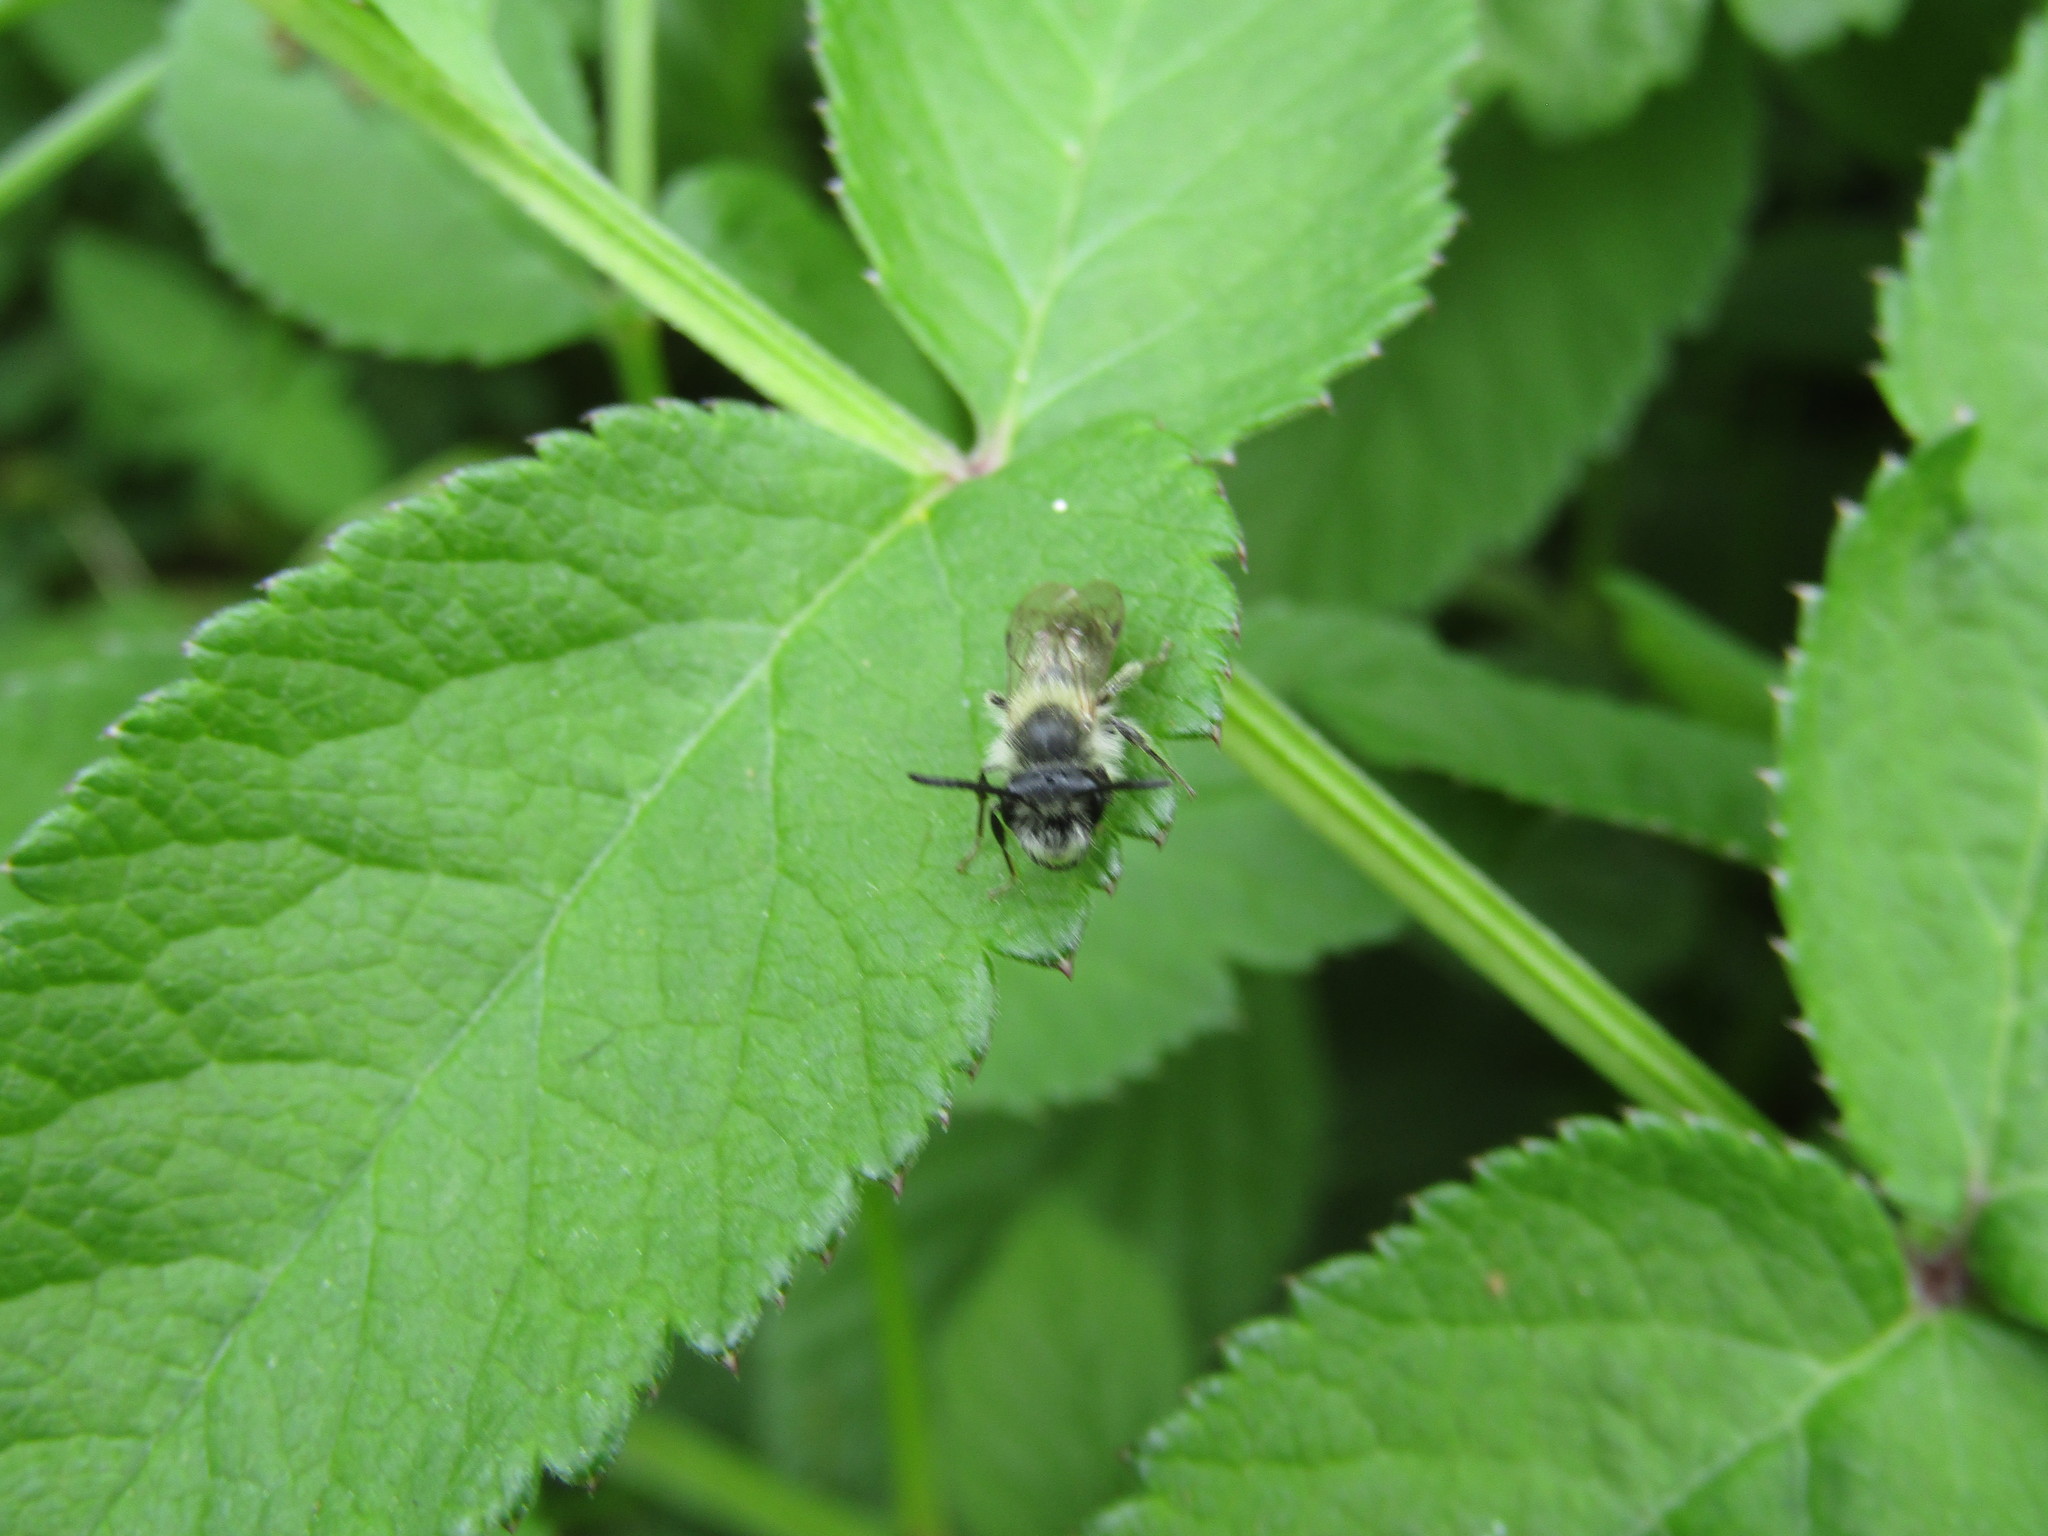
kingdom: Animalia
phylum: Arthropoda
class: Insecta
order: Hymenoptera
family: Andrenidae
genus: Andrena
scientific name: Andrena cineraria
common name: Ashy mining bee
